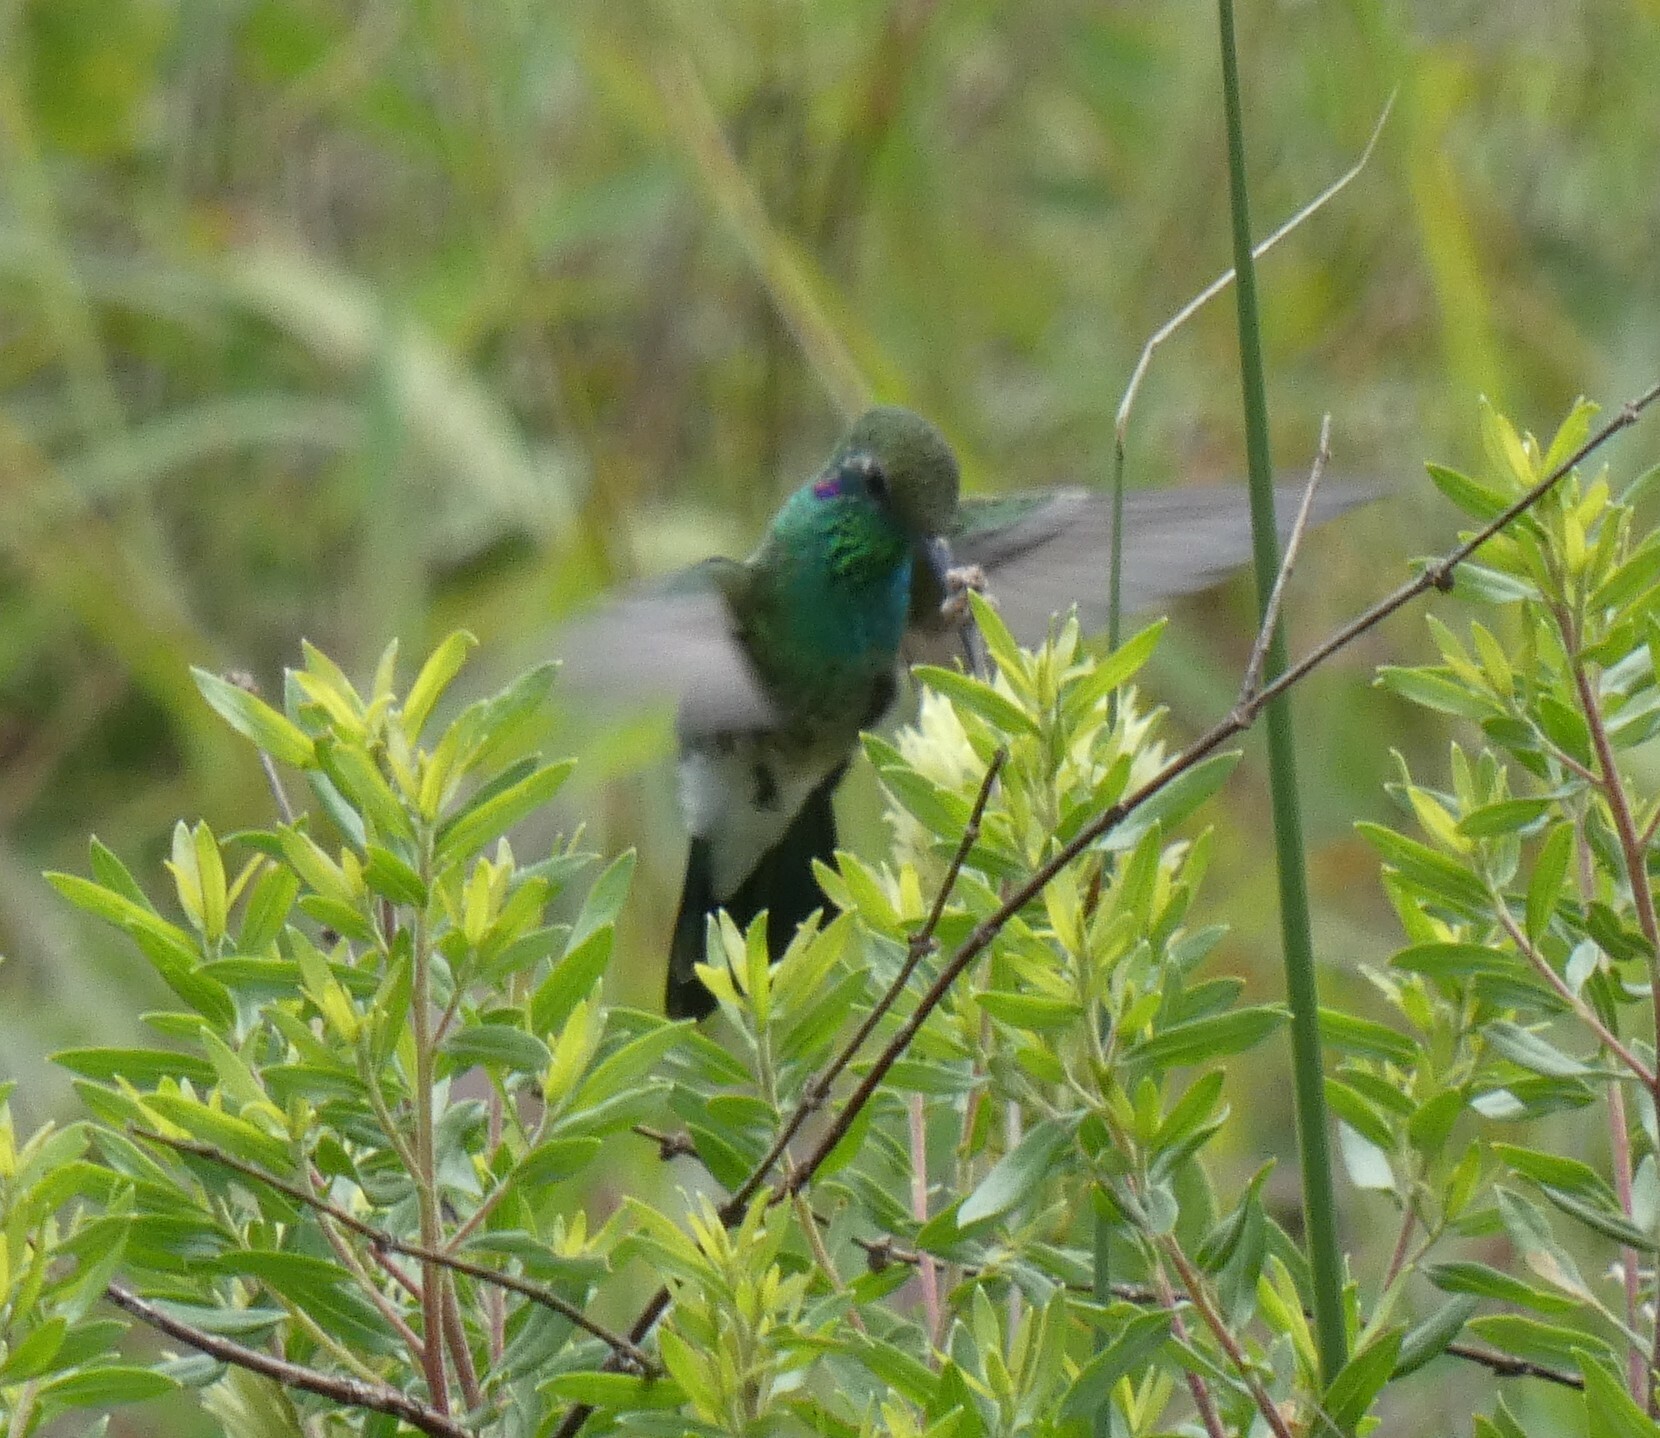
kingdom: Animalia
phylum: Chordata
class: Aves
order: Apodiformes
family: Trochilidae
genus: Colibri
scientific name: Colibri serrirostris
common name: White-vented violetear
